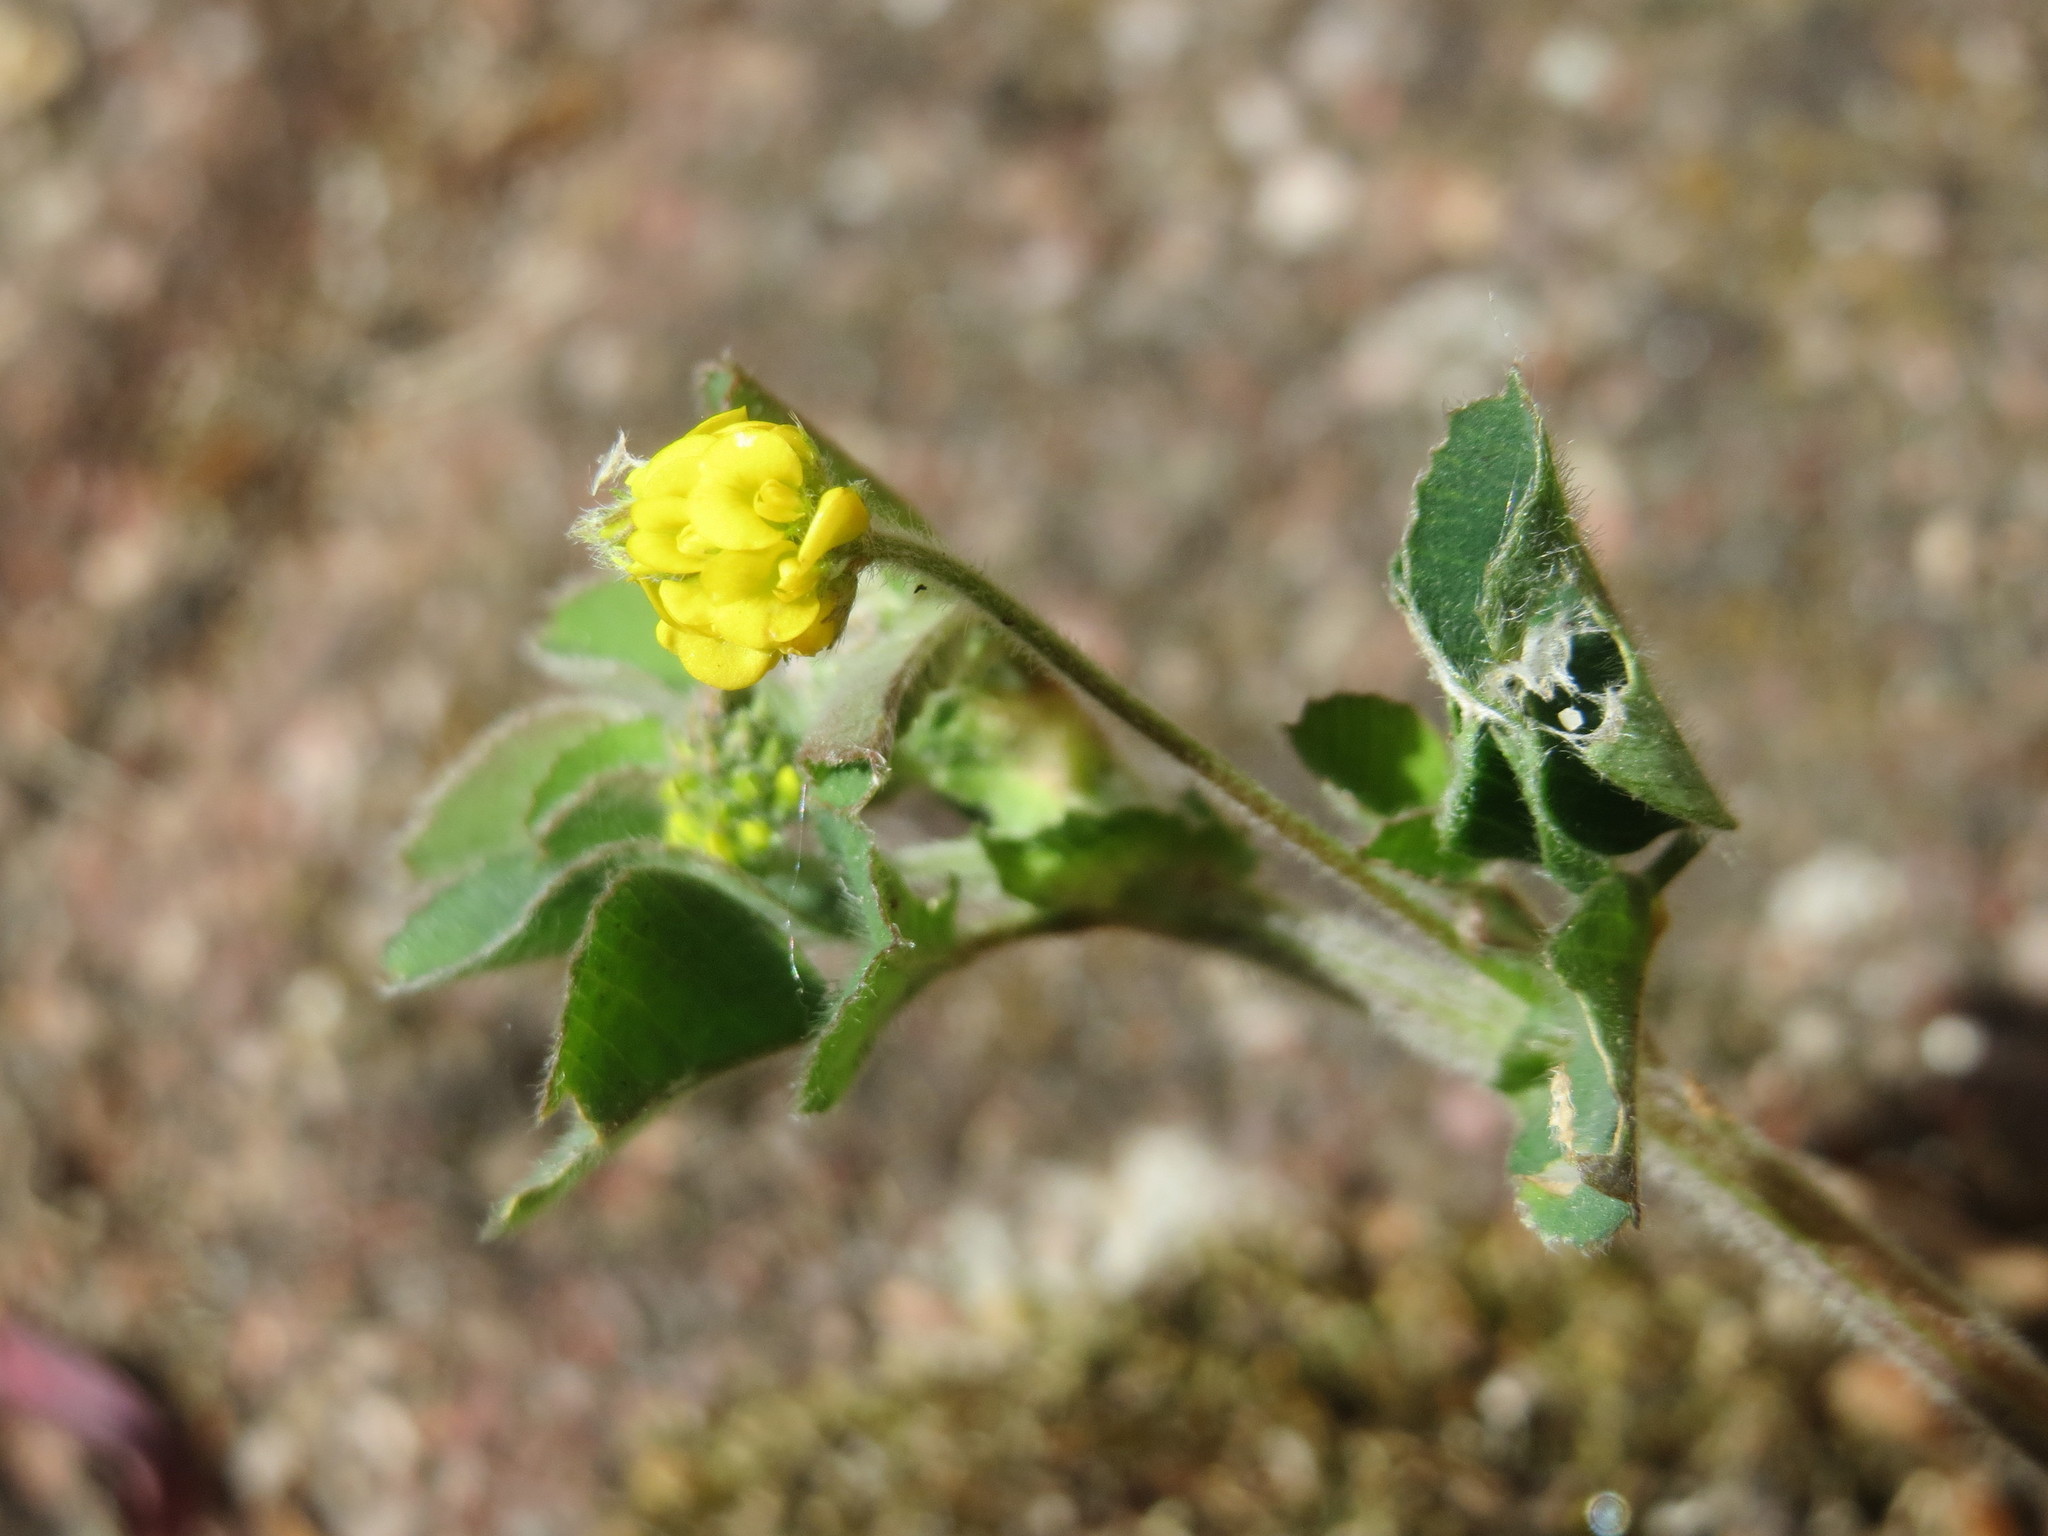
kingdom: Plantae
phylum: Tracheophyta
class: Magnoliopsida
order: Fabales
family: Fabaceae
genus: Medicago
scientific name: Medicago lupulina
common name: Black medick
